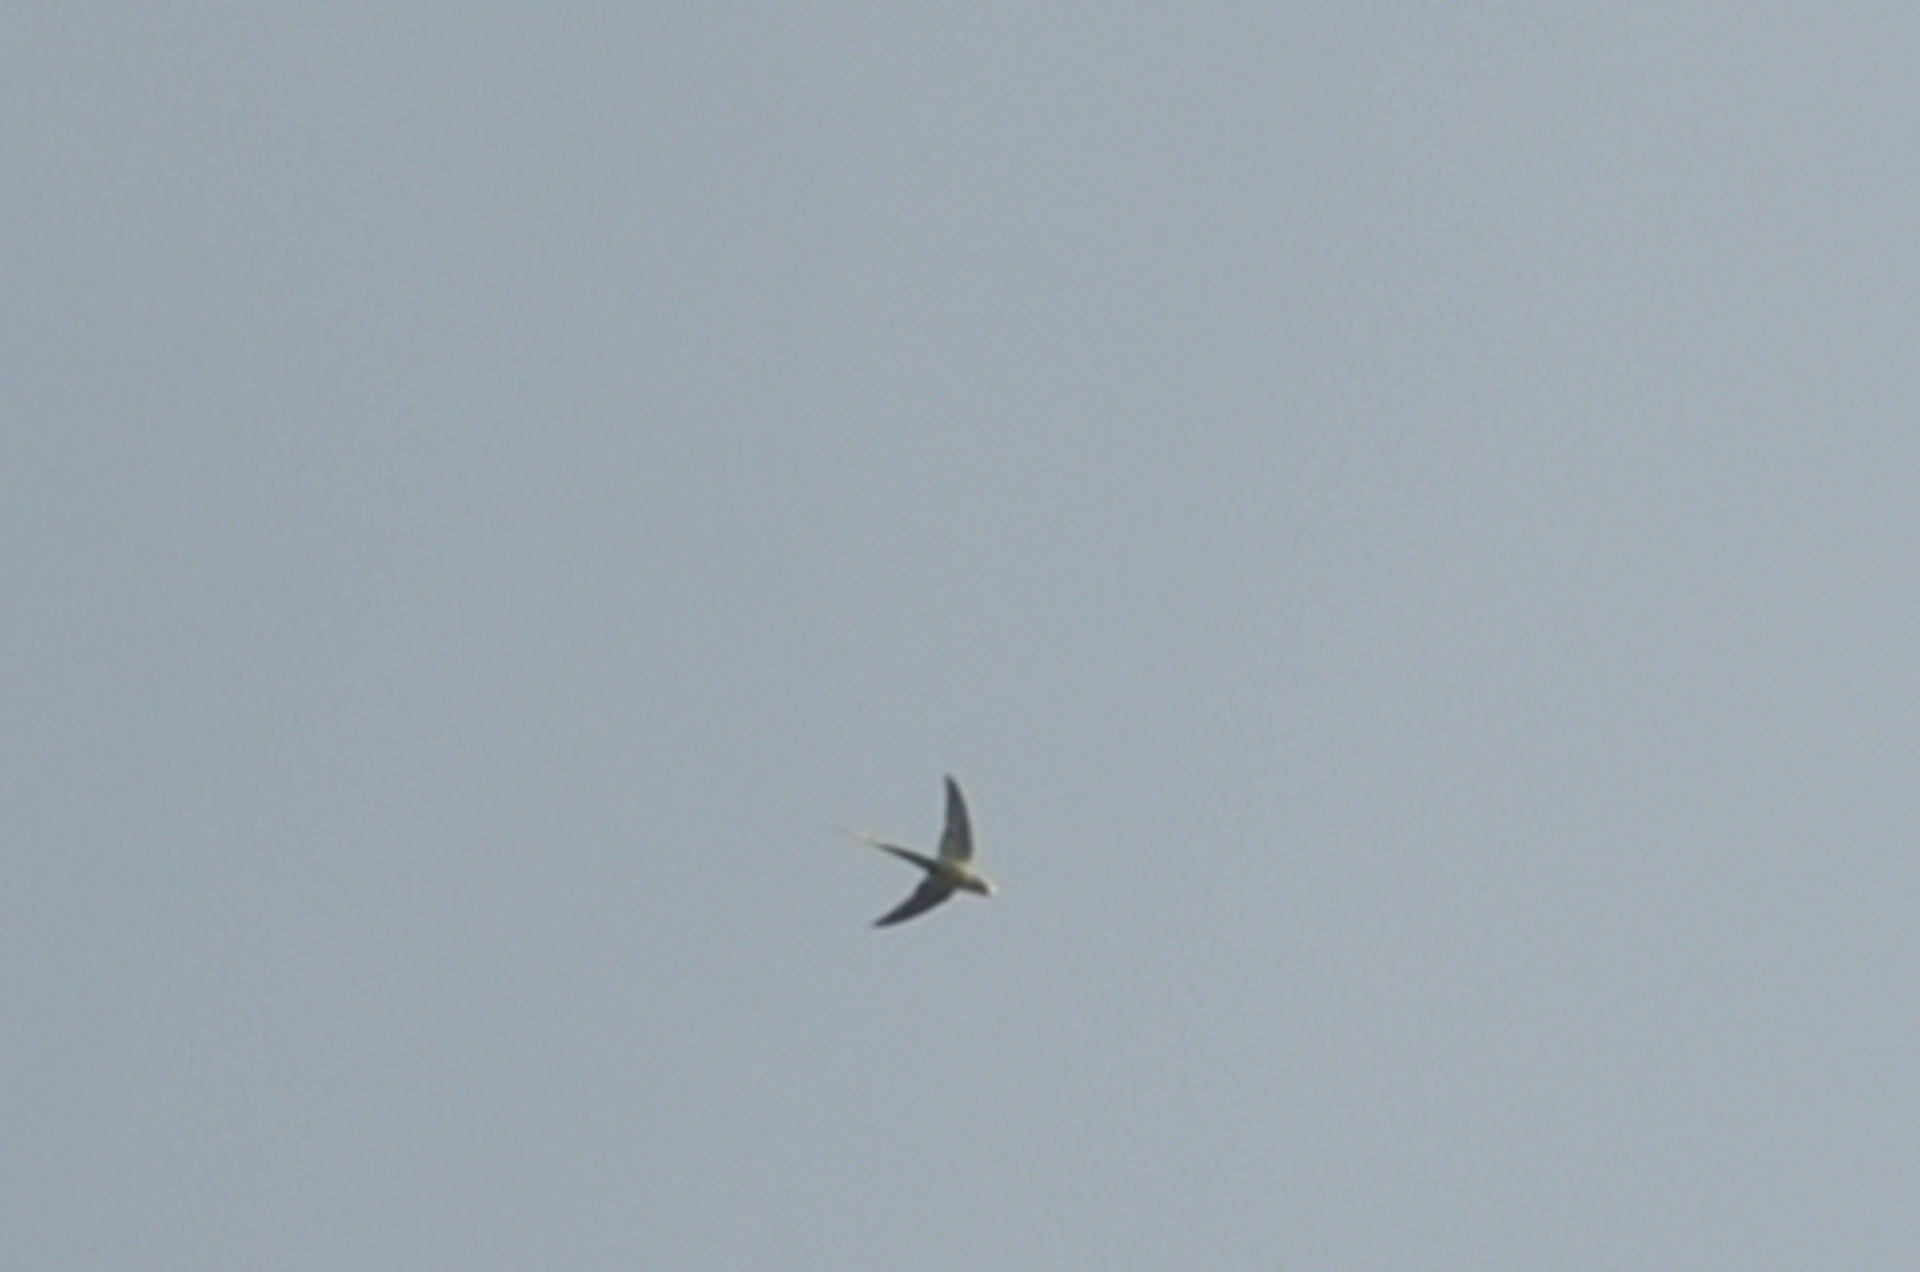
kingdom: Animalia
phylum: Chordata
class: Aves
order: Psittaciformes
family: Psittacidae
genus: Psittacula
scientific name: Psittacula eupatria
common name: Alexandrine parakeet
